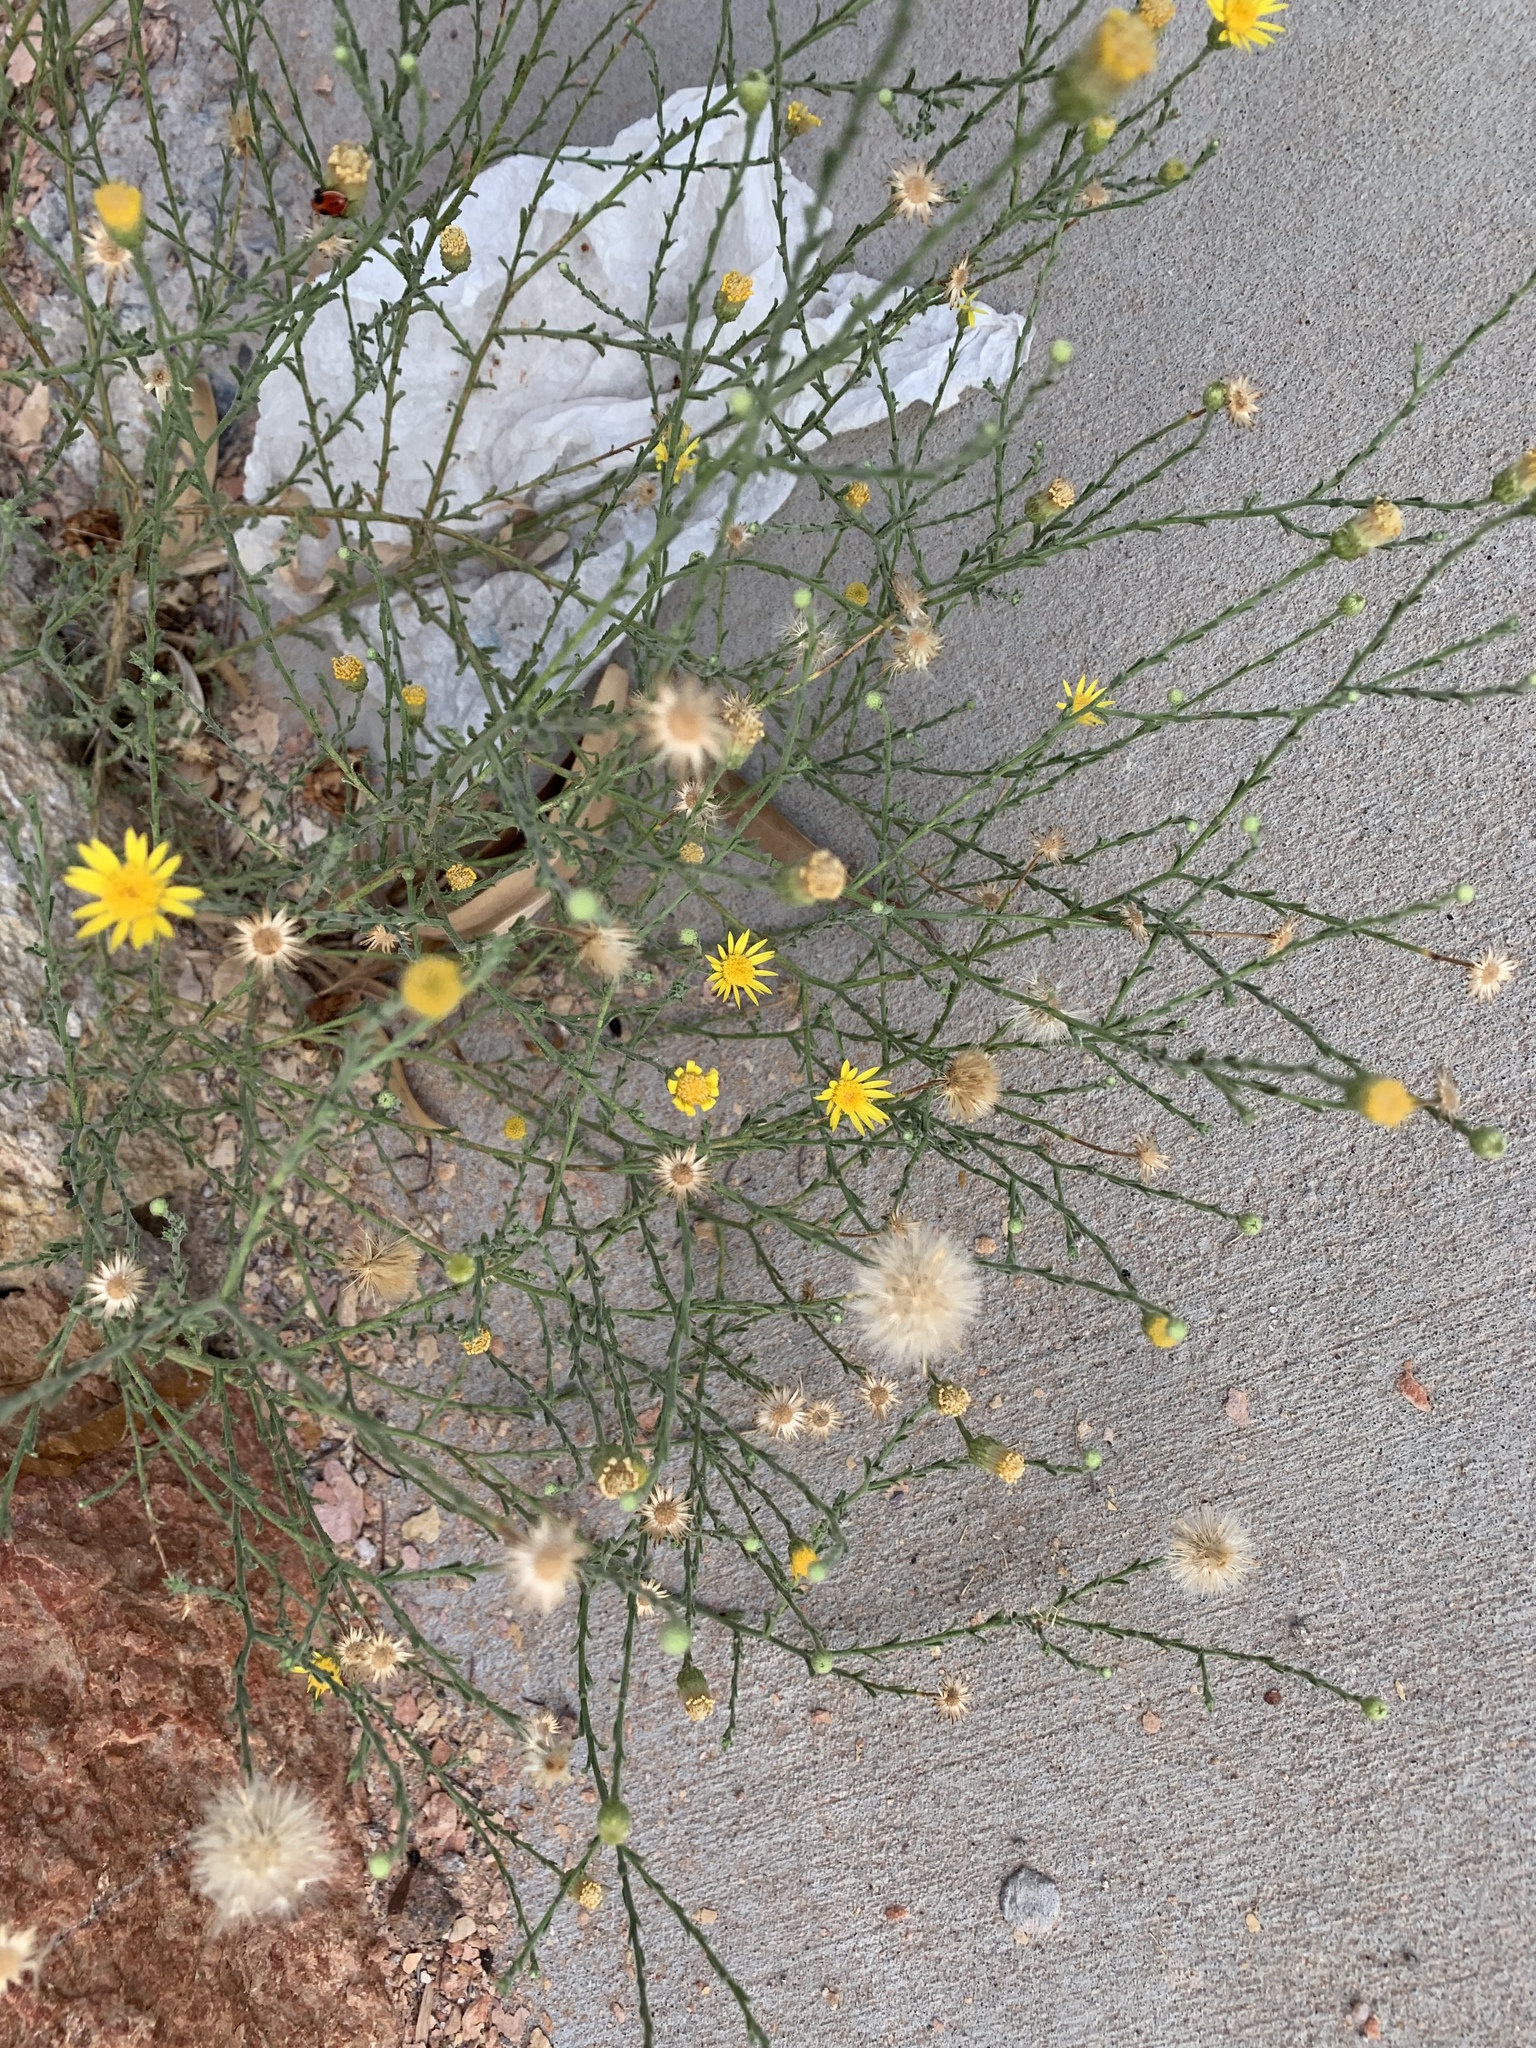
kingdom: Plantae
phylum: Tracheophyta
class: Magnoliopsida
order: Asterales
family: Asteraceae
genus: Xanthisma
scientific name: Xanthisma spinulosum
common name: Spiny goldenweed
